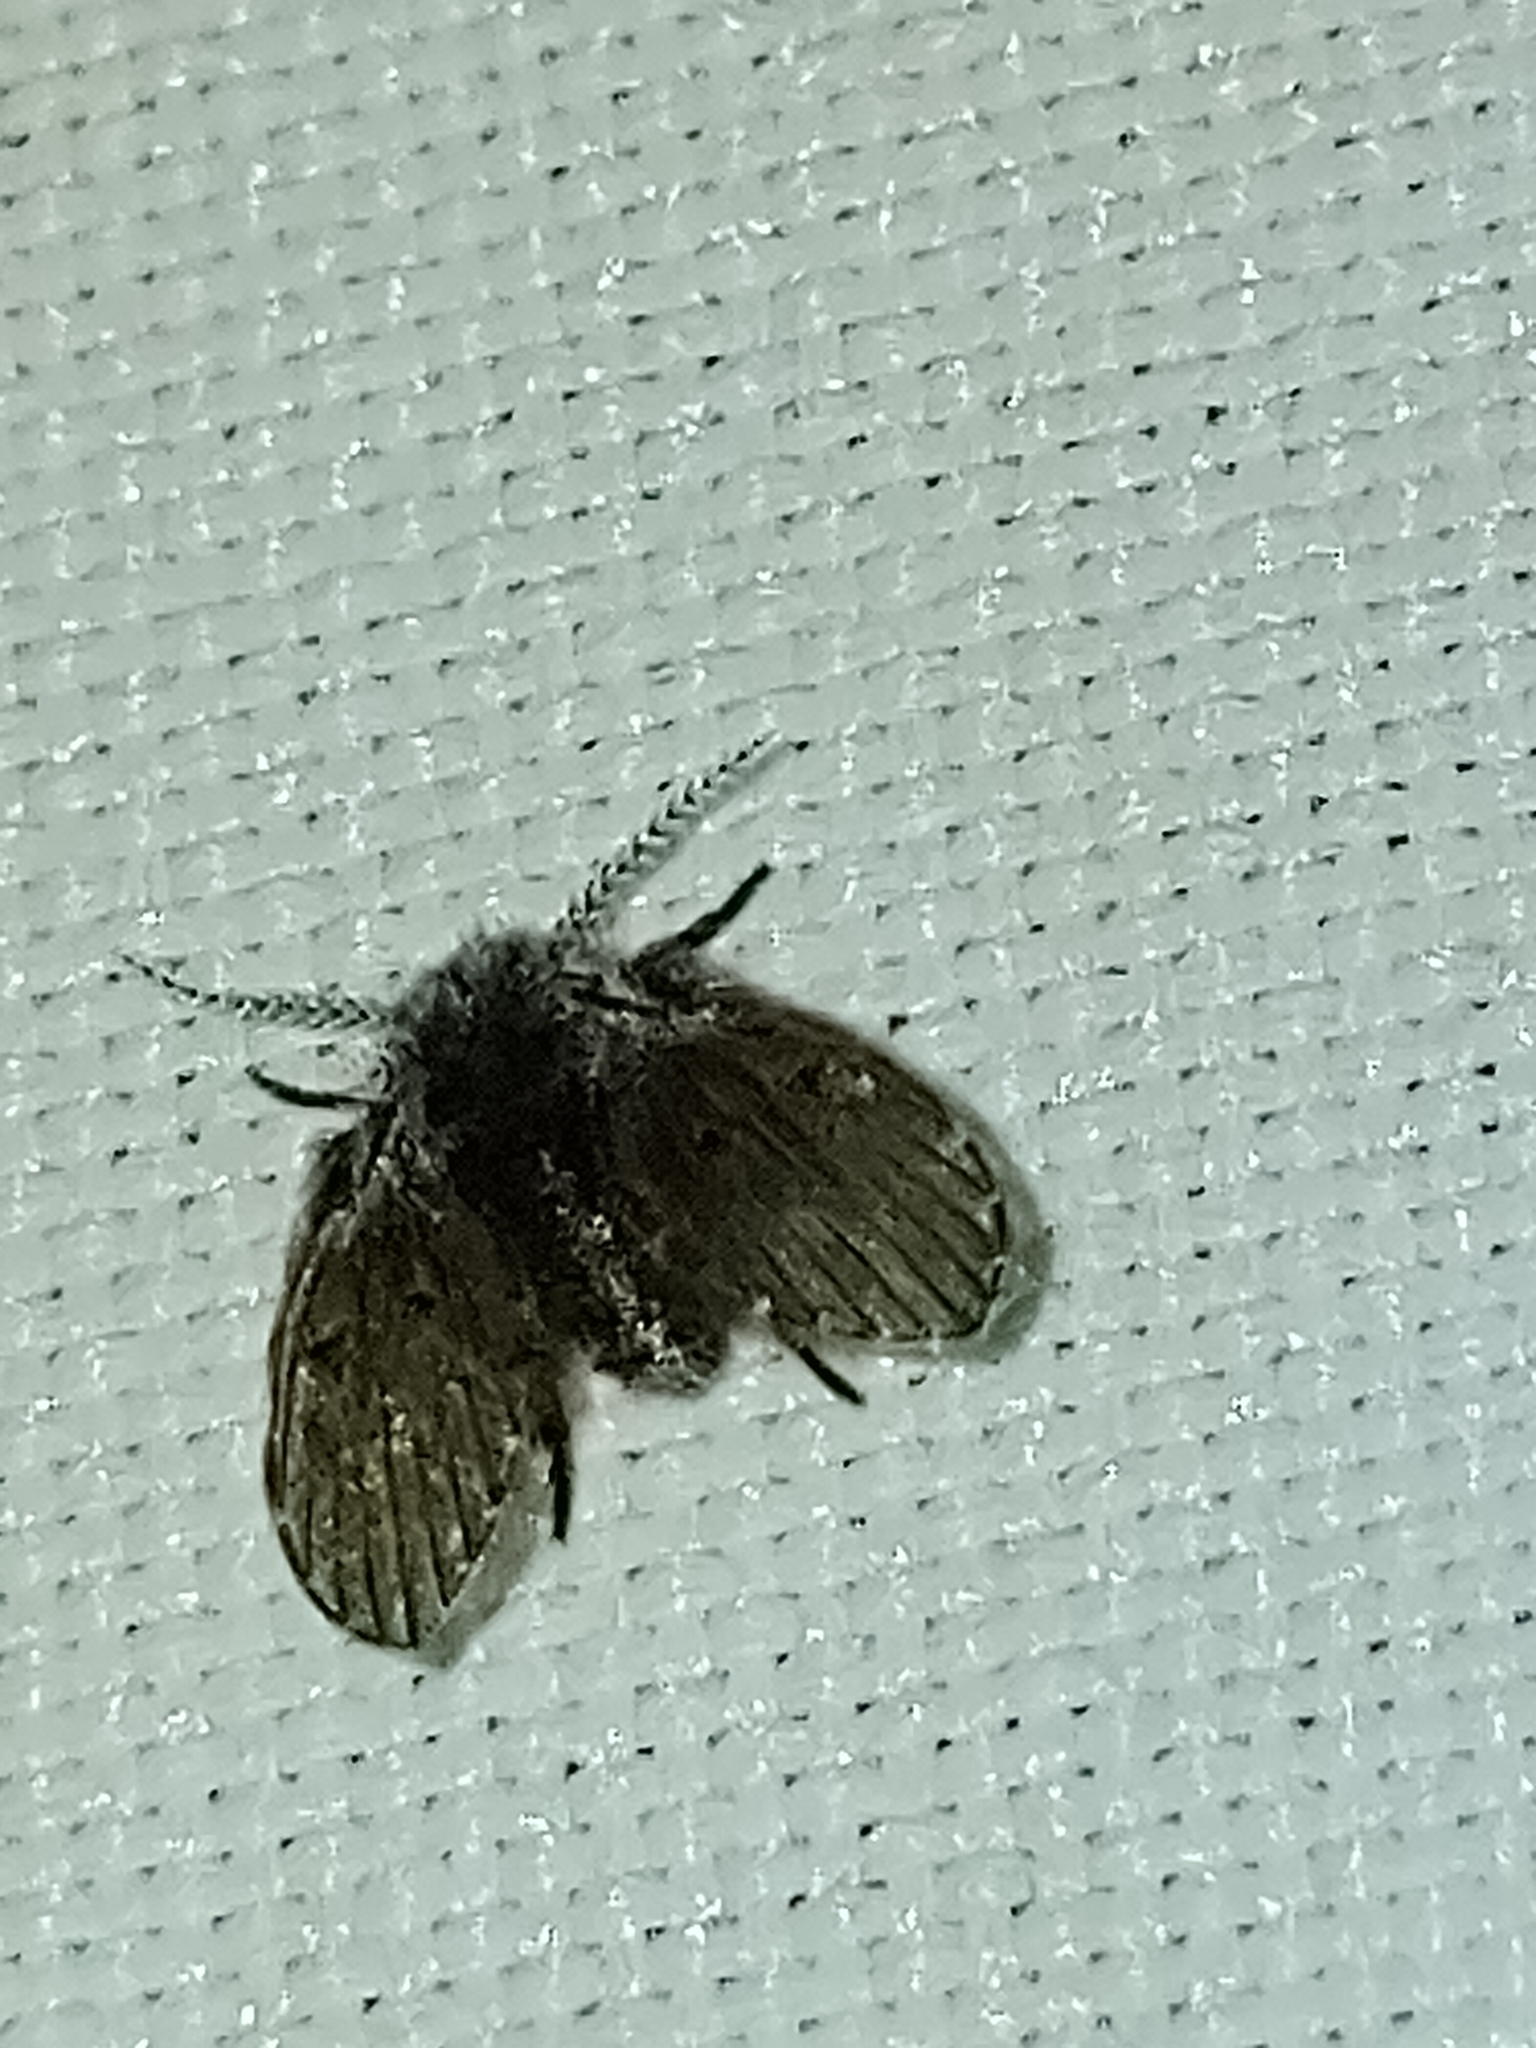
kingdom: Animalia
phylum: Arthropoda
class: Insecta
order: Diptera
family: Psychodidae
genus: Clogmia
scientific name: Clogmia albipunctatus
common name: White-spotted moth fly
